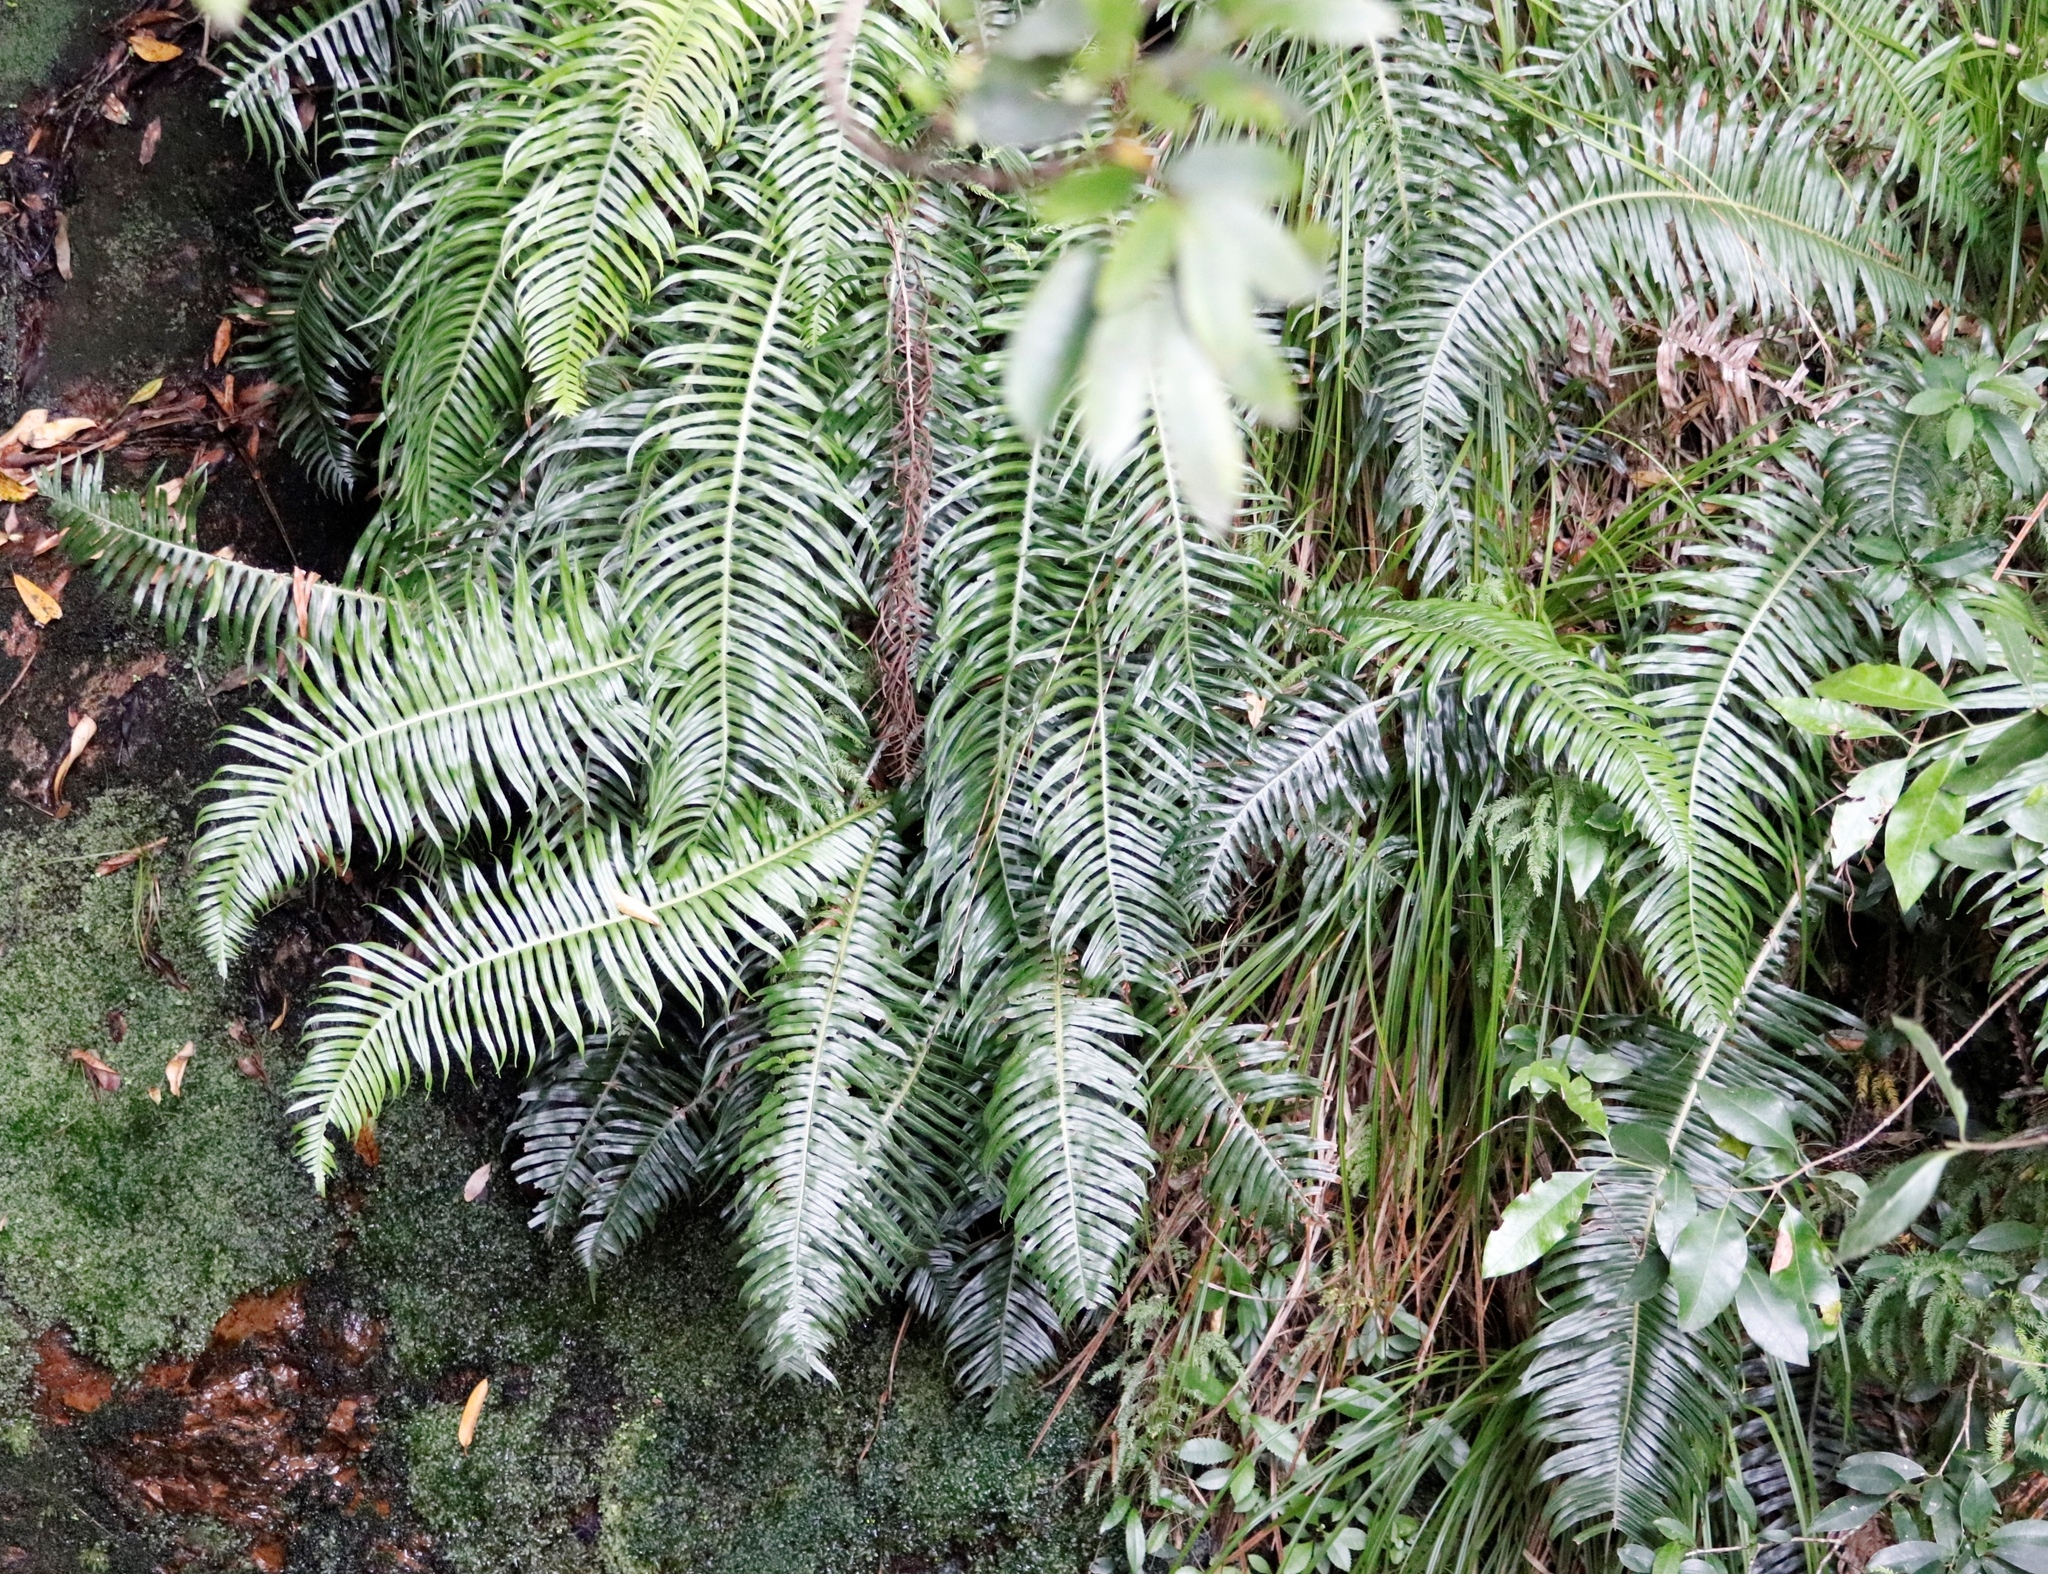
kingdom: Plantae
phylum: Tracheophyta
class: Polypodiopsida
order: Polypodiales
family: Blechnaceae
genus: Lomaridium
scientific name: Lomaridium attenuatum
